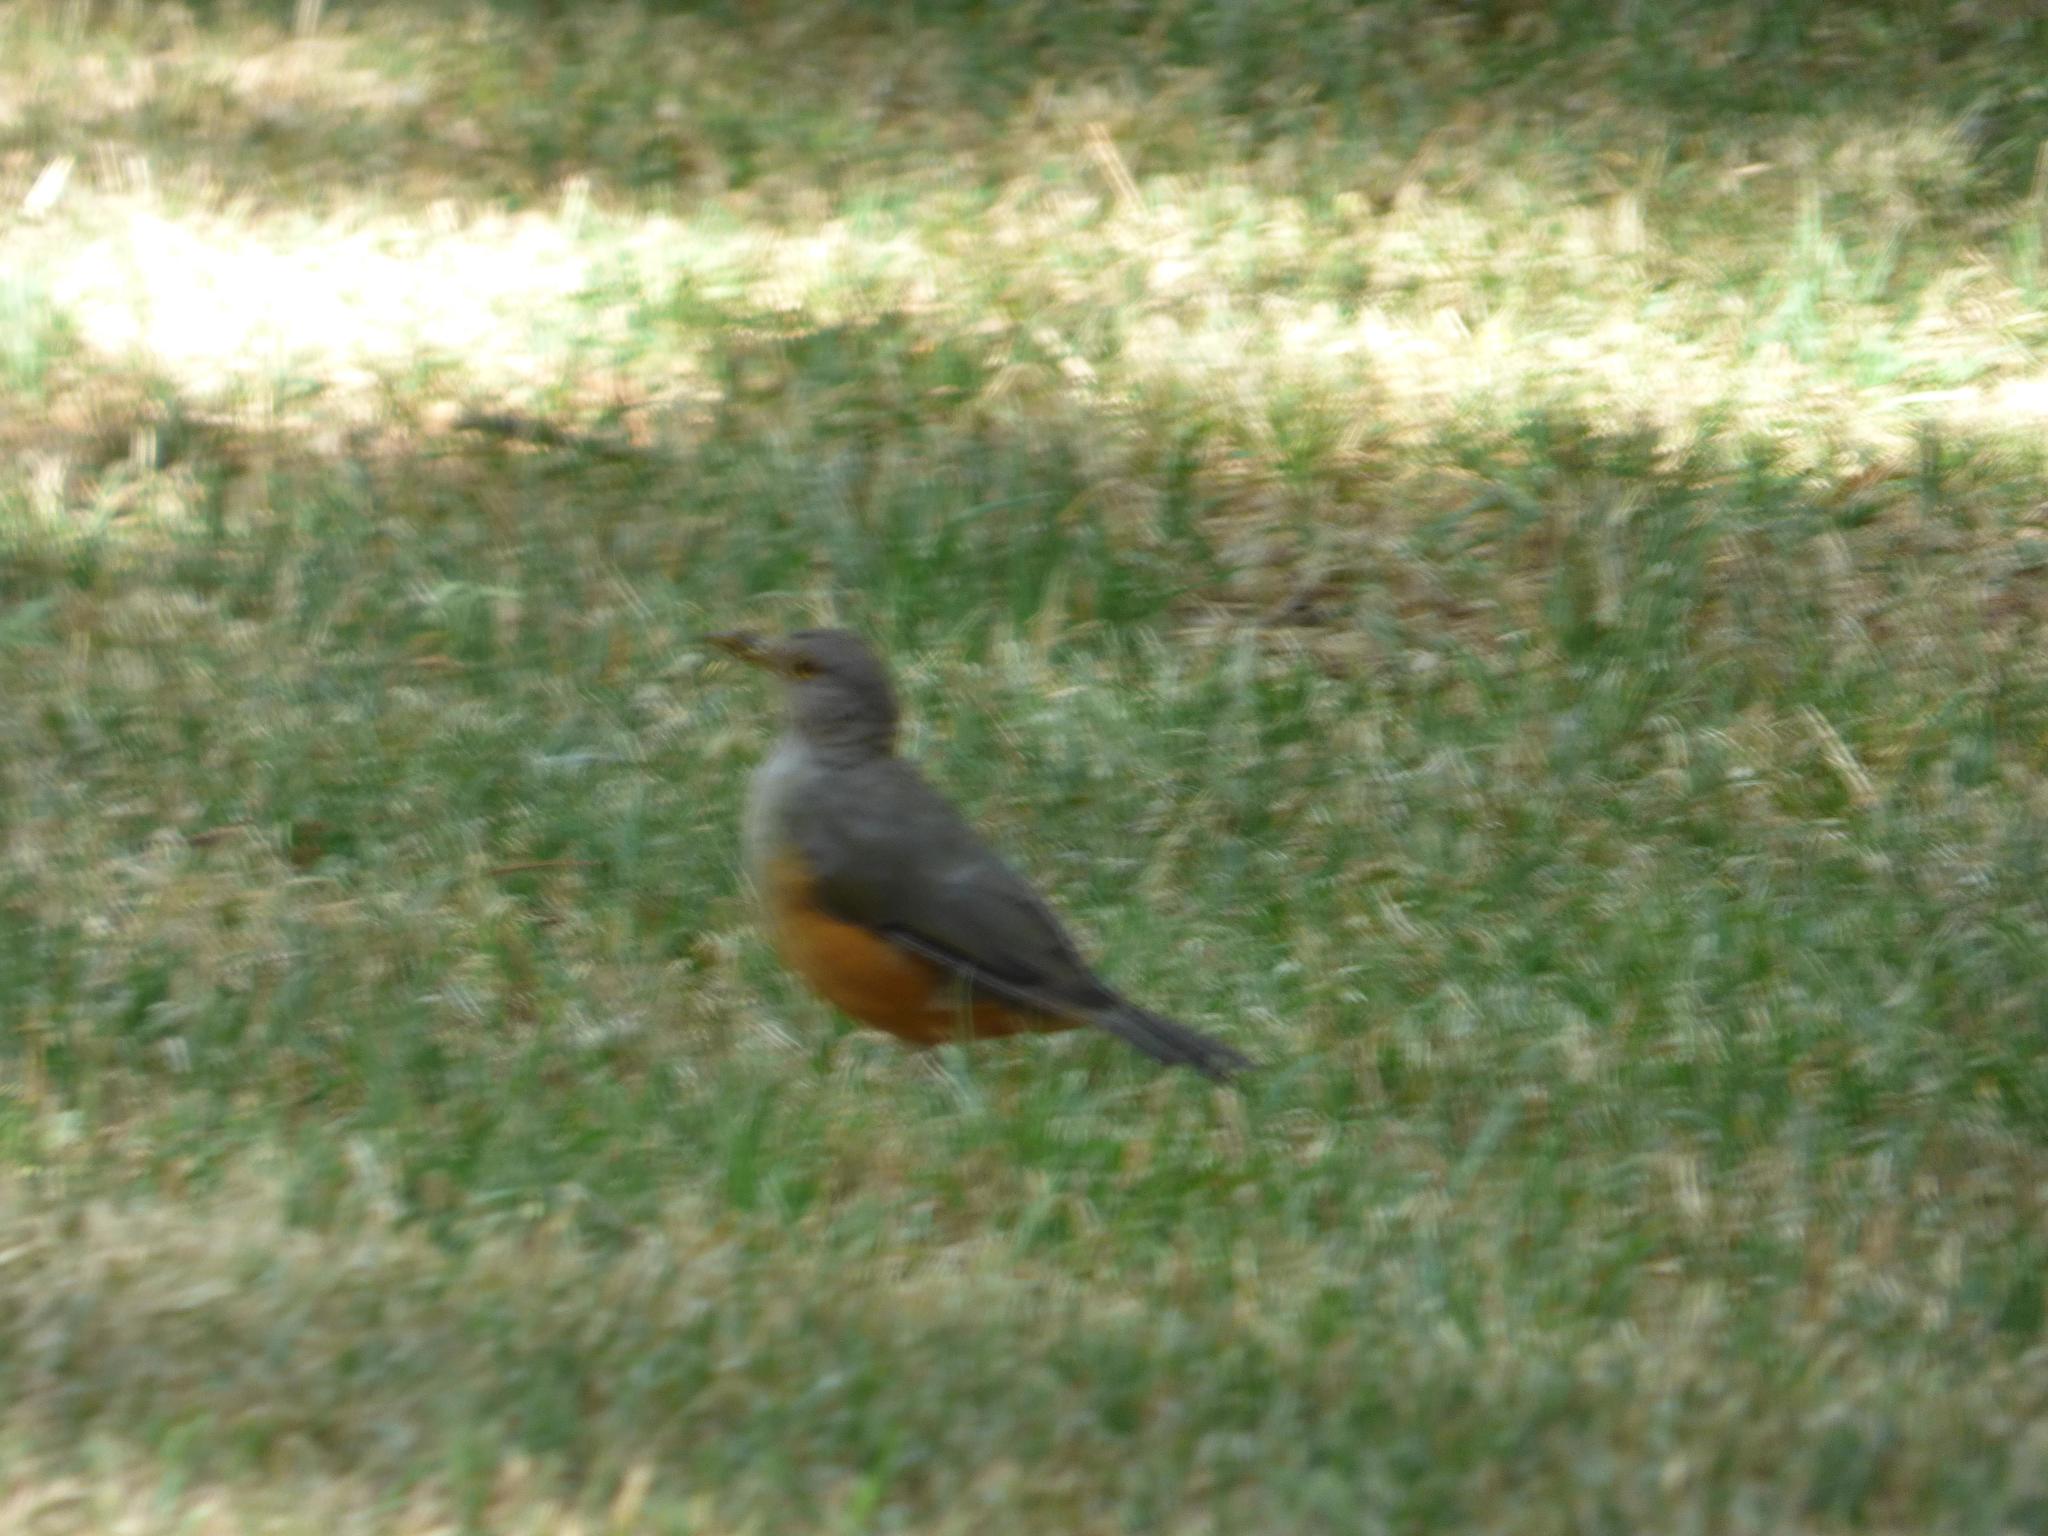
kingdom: Animalia
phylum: Chordata
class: Aves
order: Passeriformes
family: Turdidae
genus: Turdus
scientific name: Turdus rufiventris
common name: Rufous-bellied thrush
